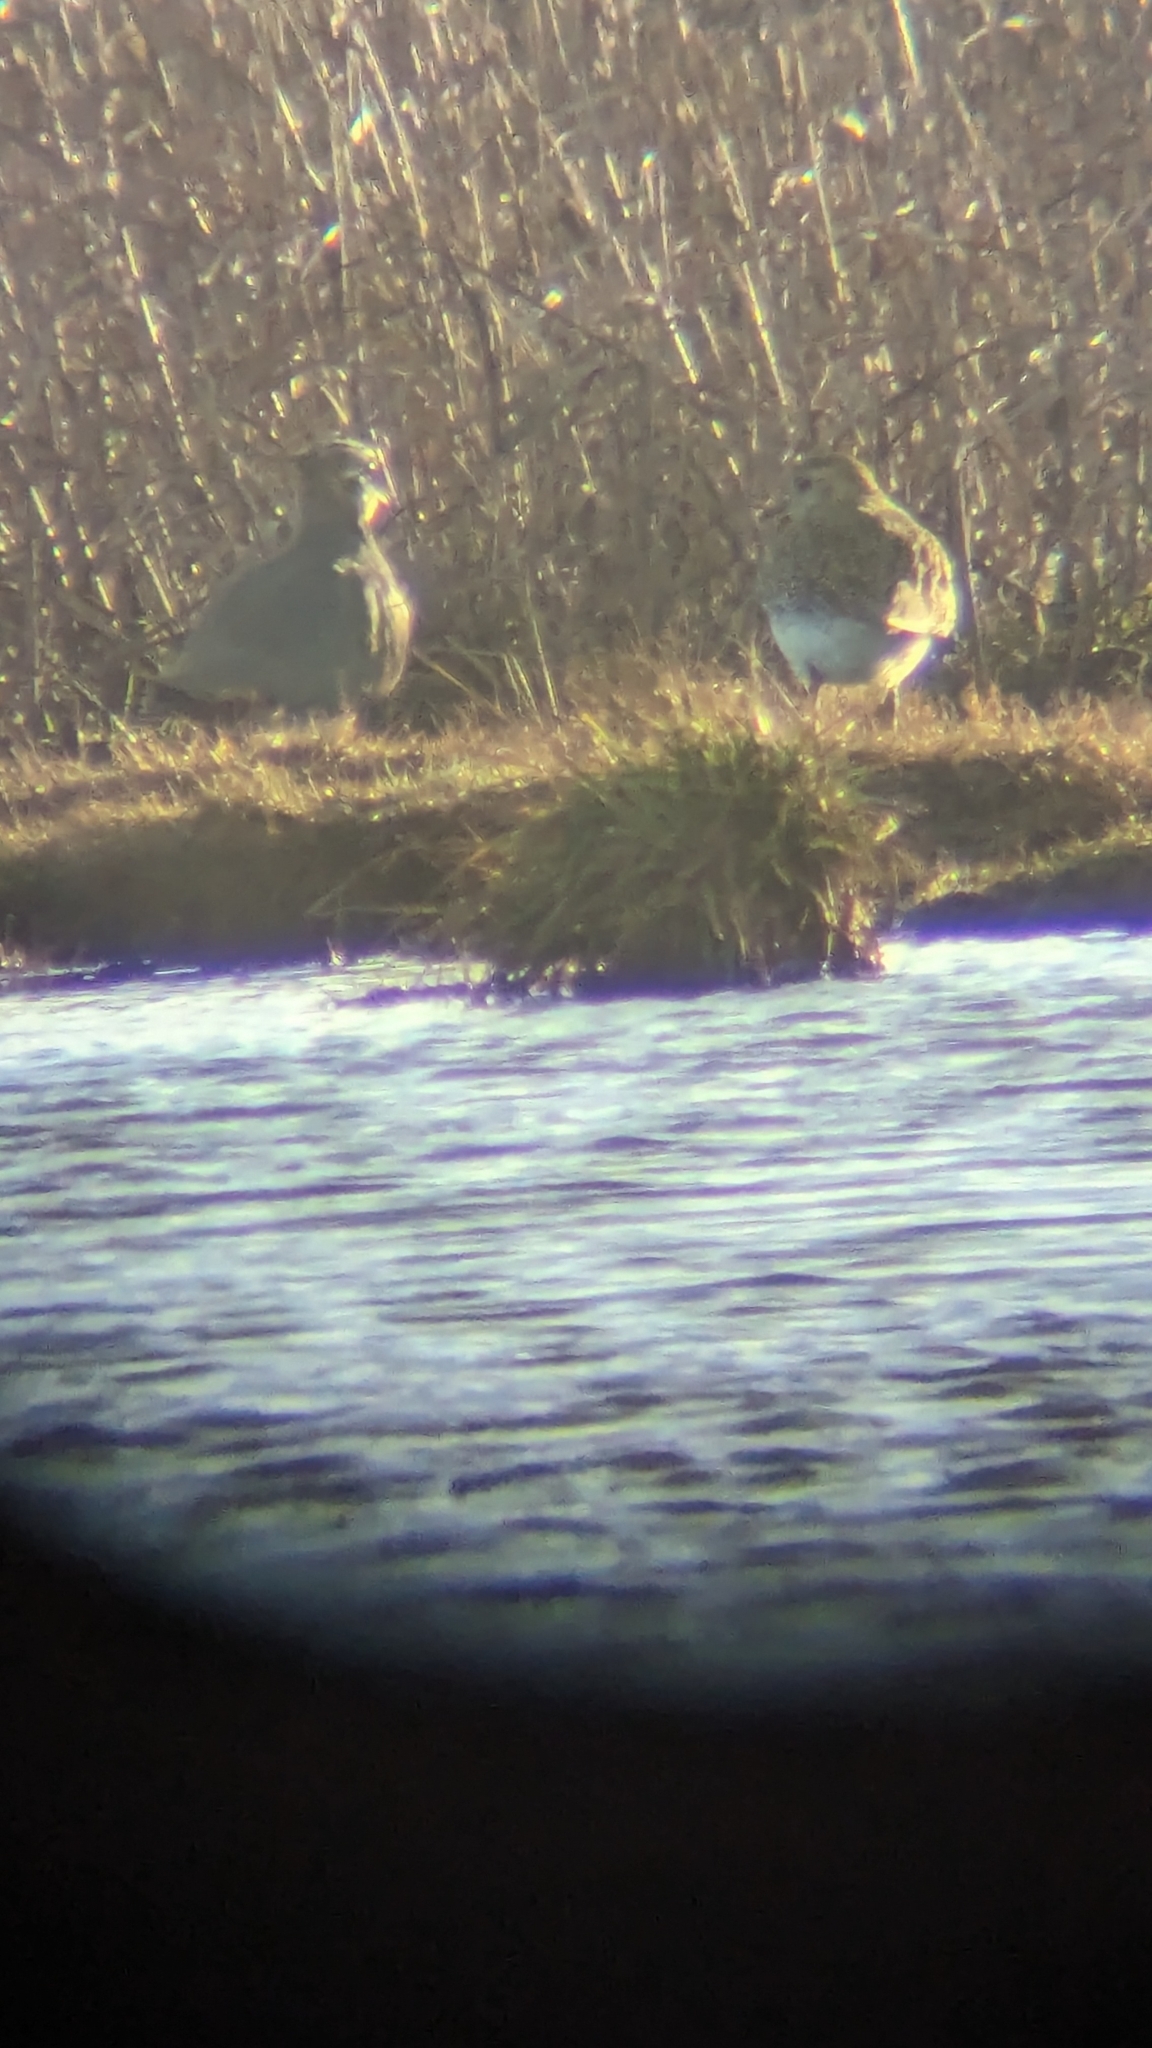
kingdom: Animalia
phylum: Chordata
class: Aves
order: Charadriiformes
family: Charadriidae
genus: Vanellus
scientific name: Vanellus vanellus
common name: Northern lapwing
